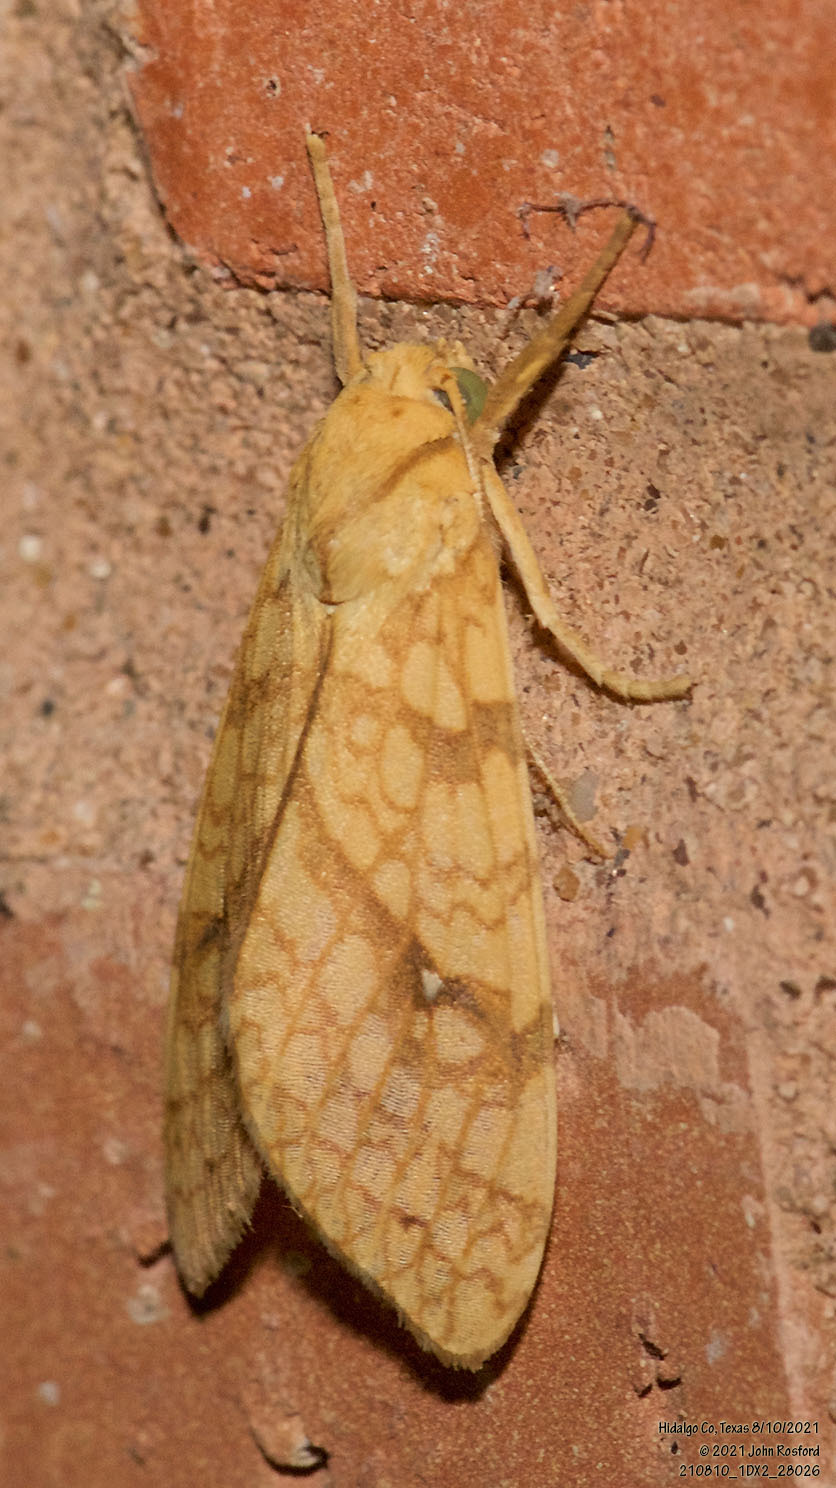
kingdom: Animalia
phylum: Arthropoda
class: Insecta
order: Lepidoptera
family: Erebidae
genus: Lophocampa
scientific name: Lophocampa annulosa
